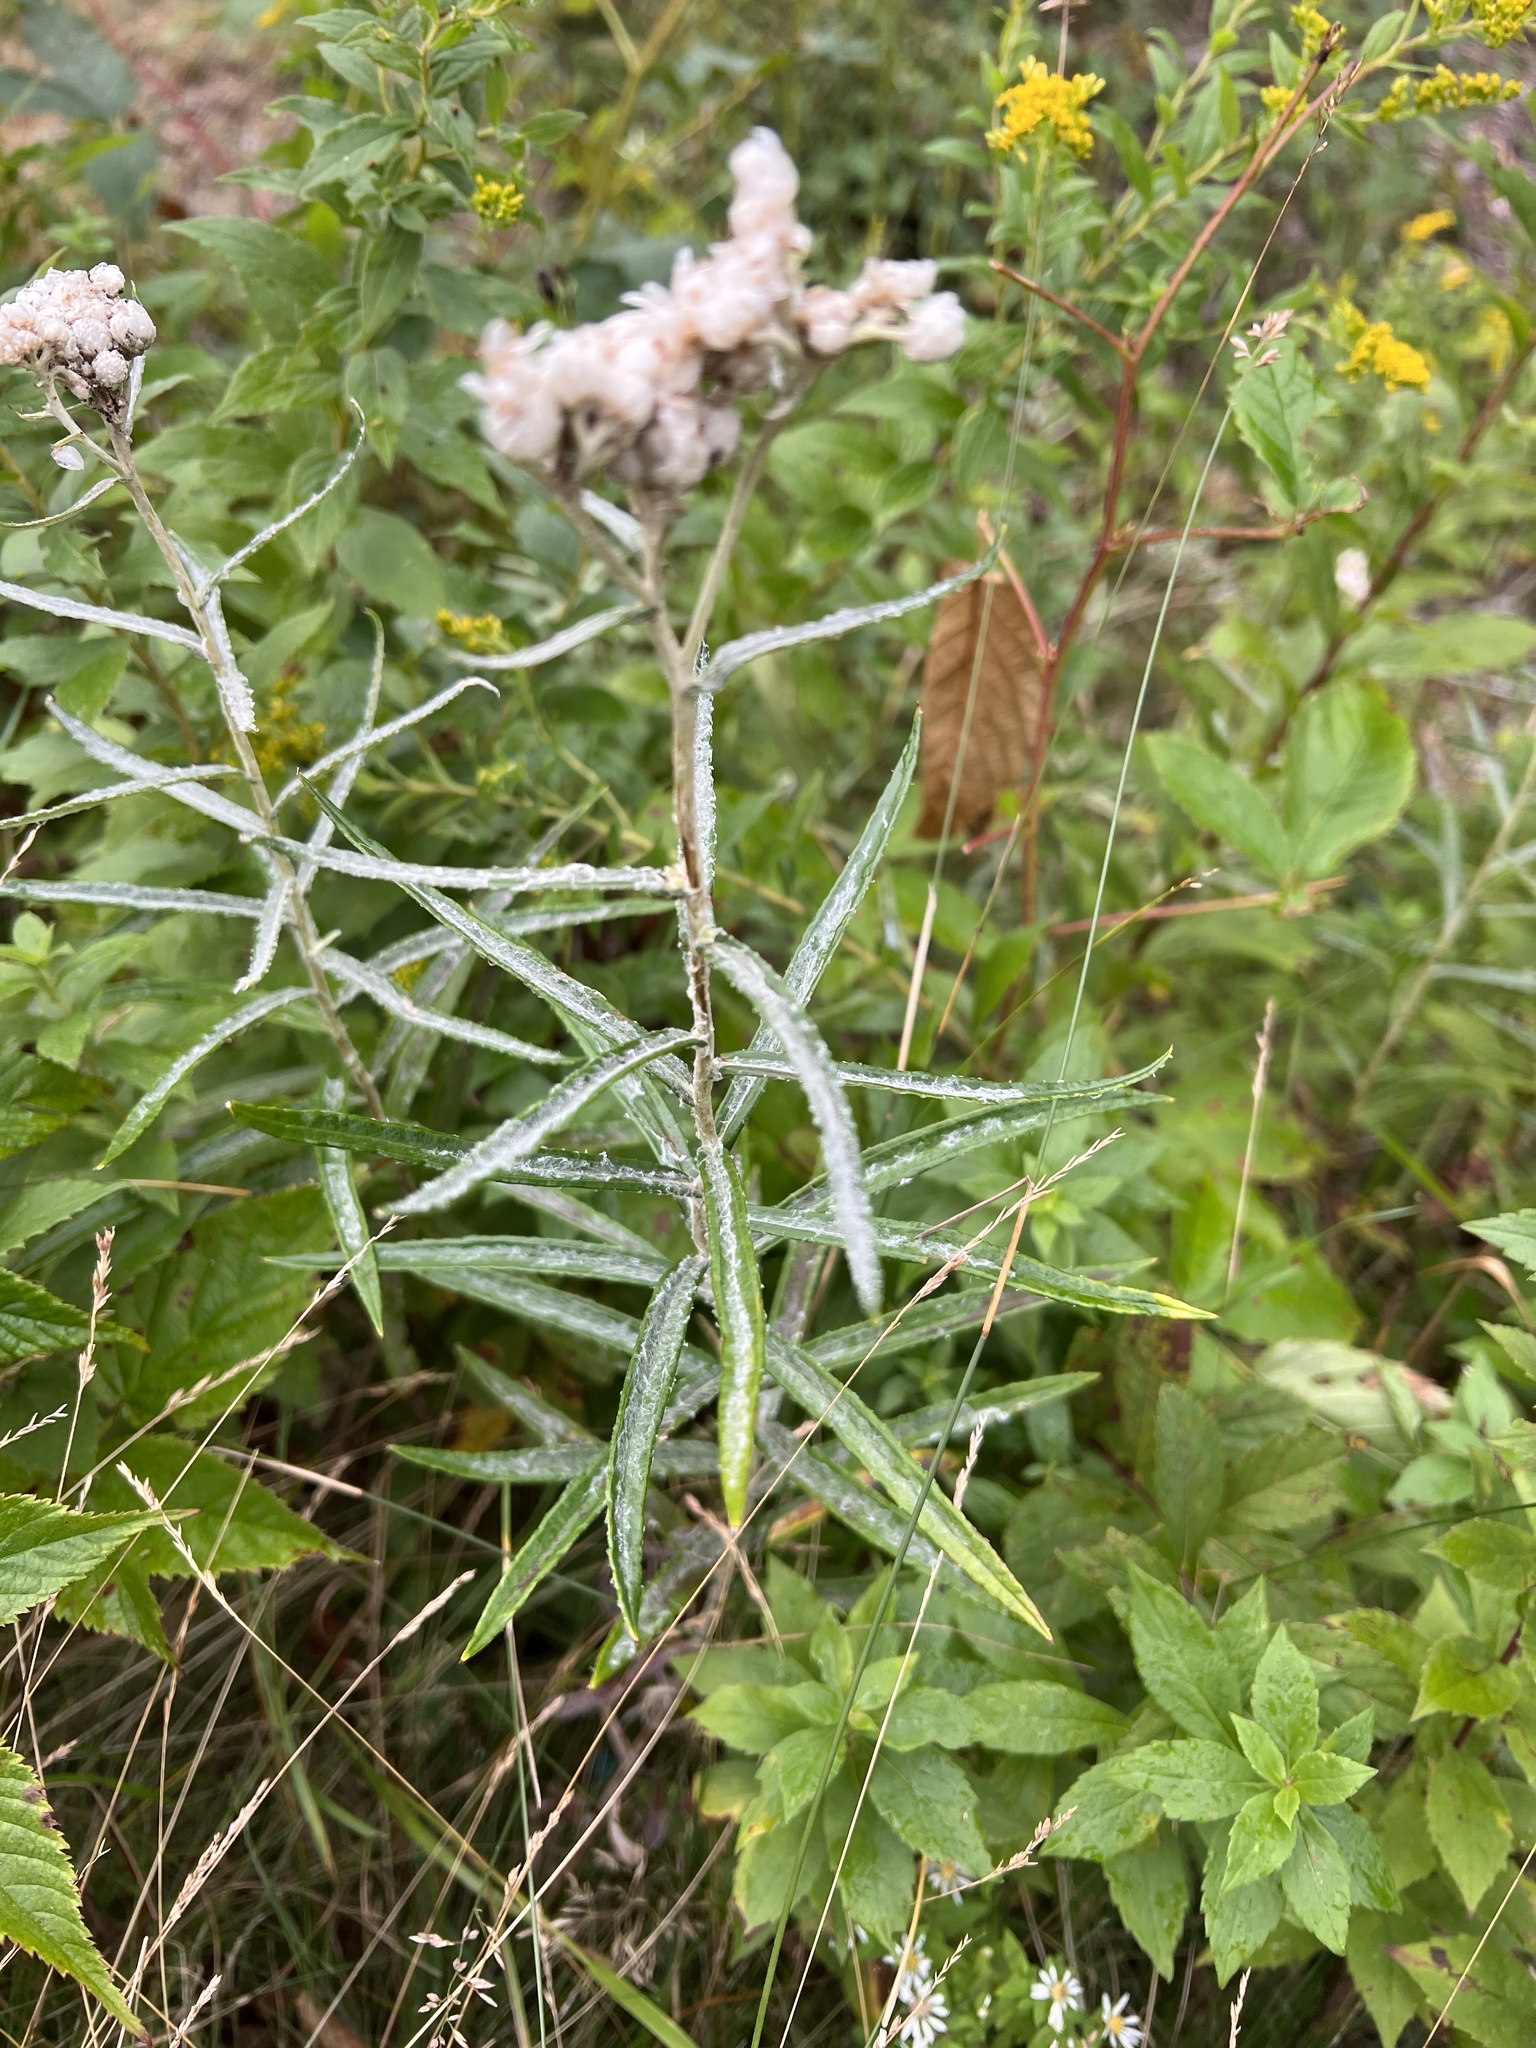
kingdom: Plantae
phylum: Tracheophyta
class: Magnoliopsida
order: Asterales
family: Asteraceae
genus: Anaphalis
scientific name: Anaphalis margaritacea
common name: Pearly everlasting
